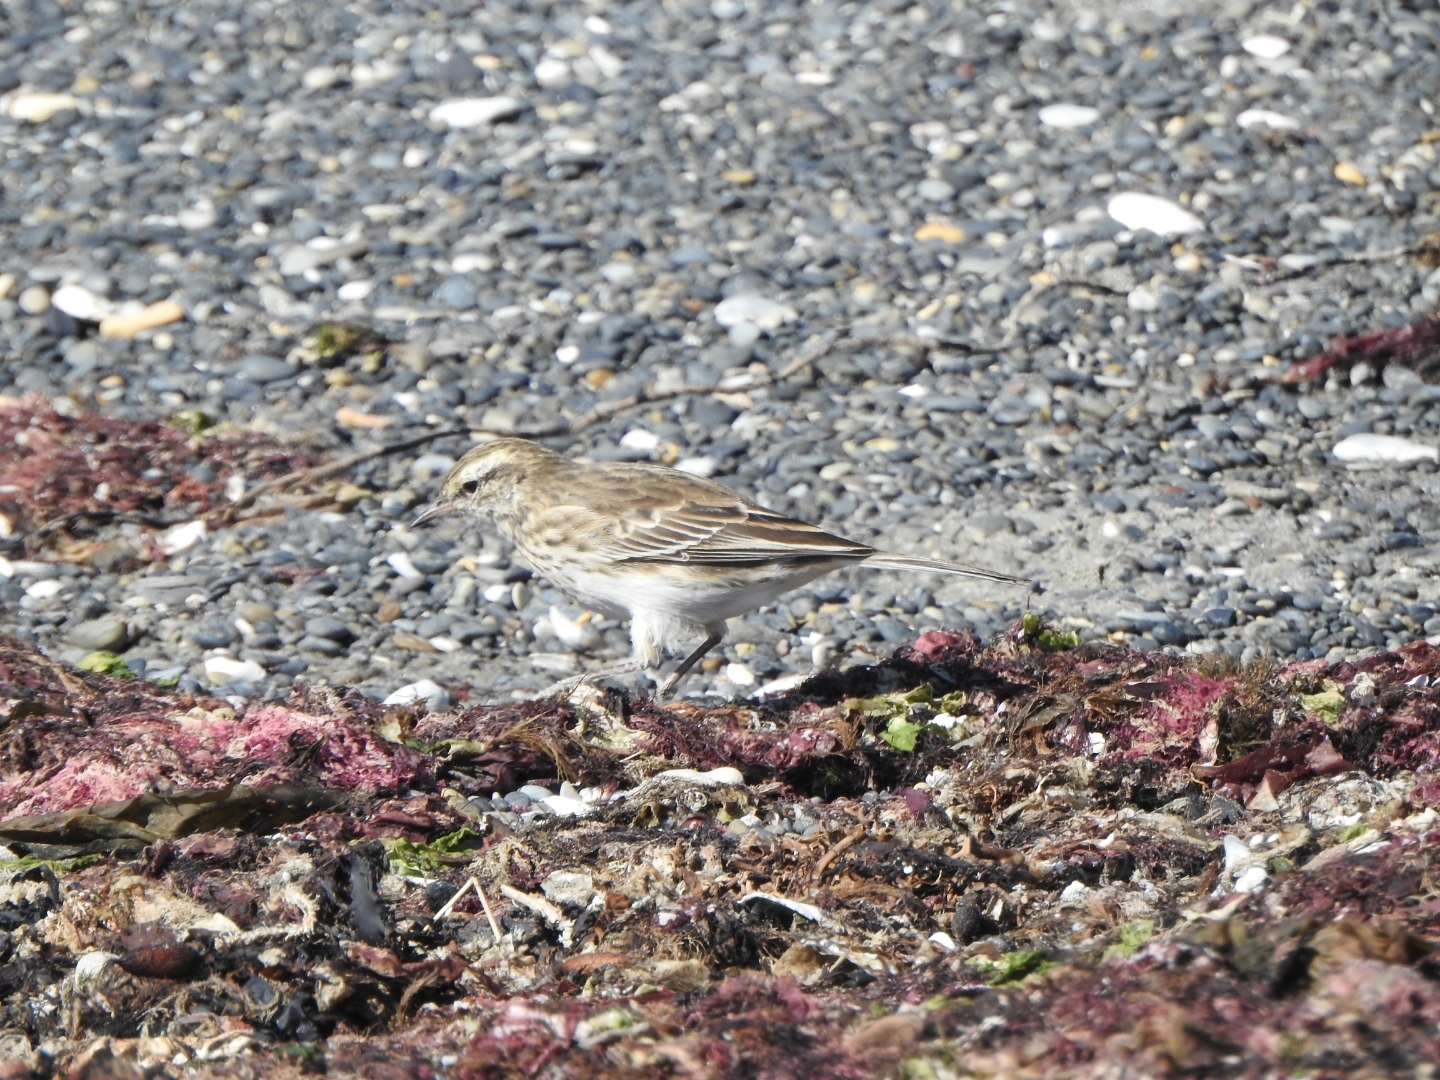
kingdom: Animalia
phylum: Chordata
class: Aves
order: Passeriformes
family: Motacillidae
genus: Anthus
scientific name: Anthus novaeseelandiae
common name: New zealand pipit
